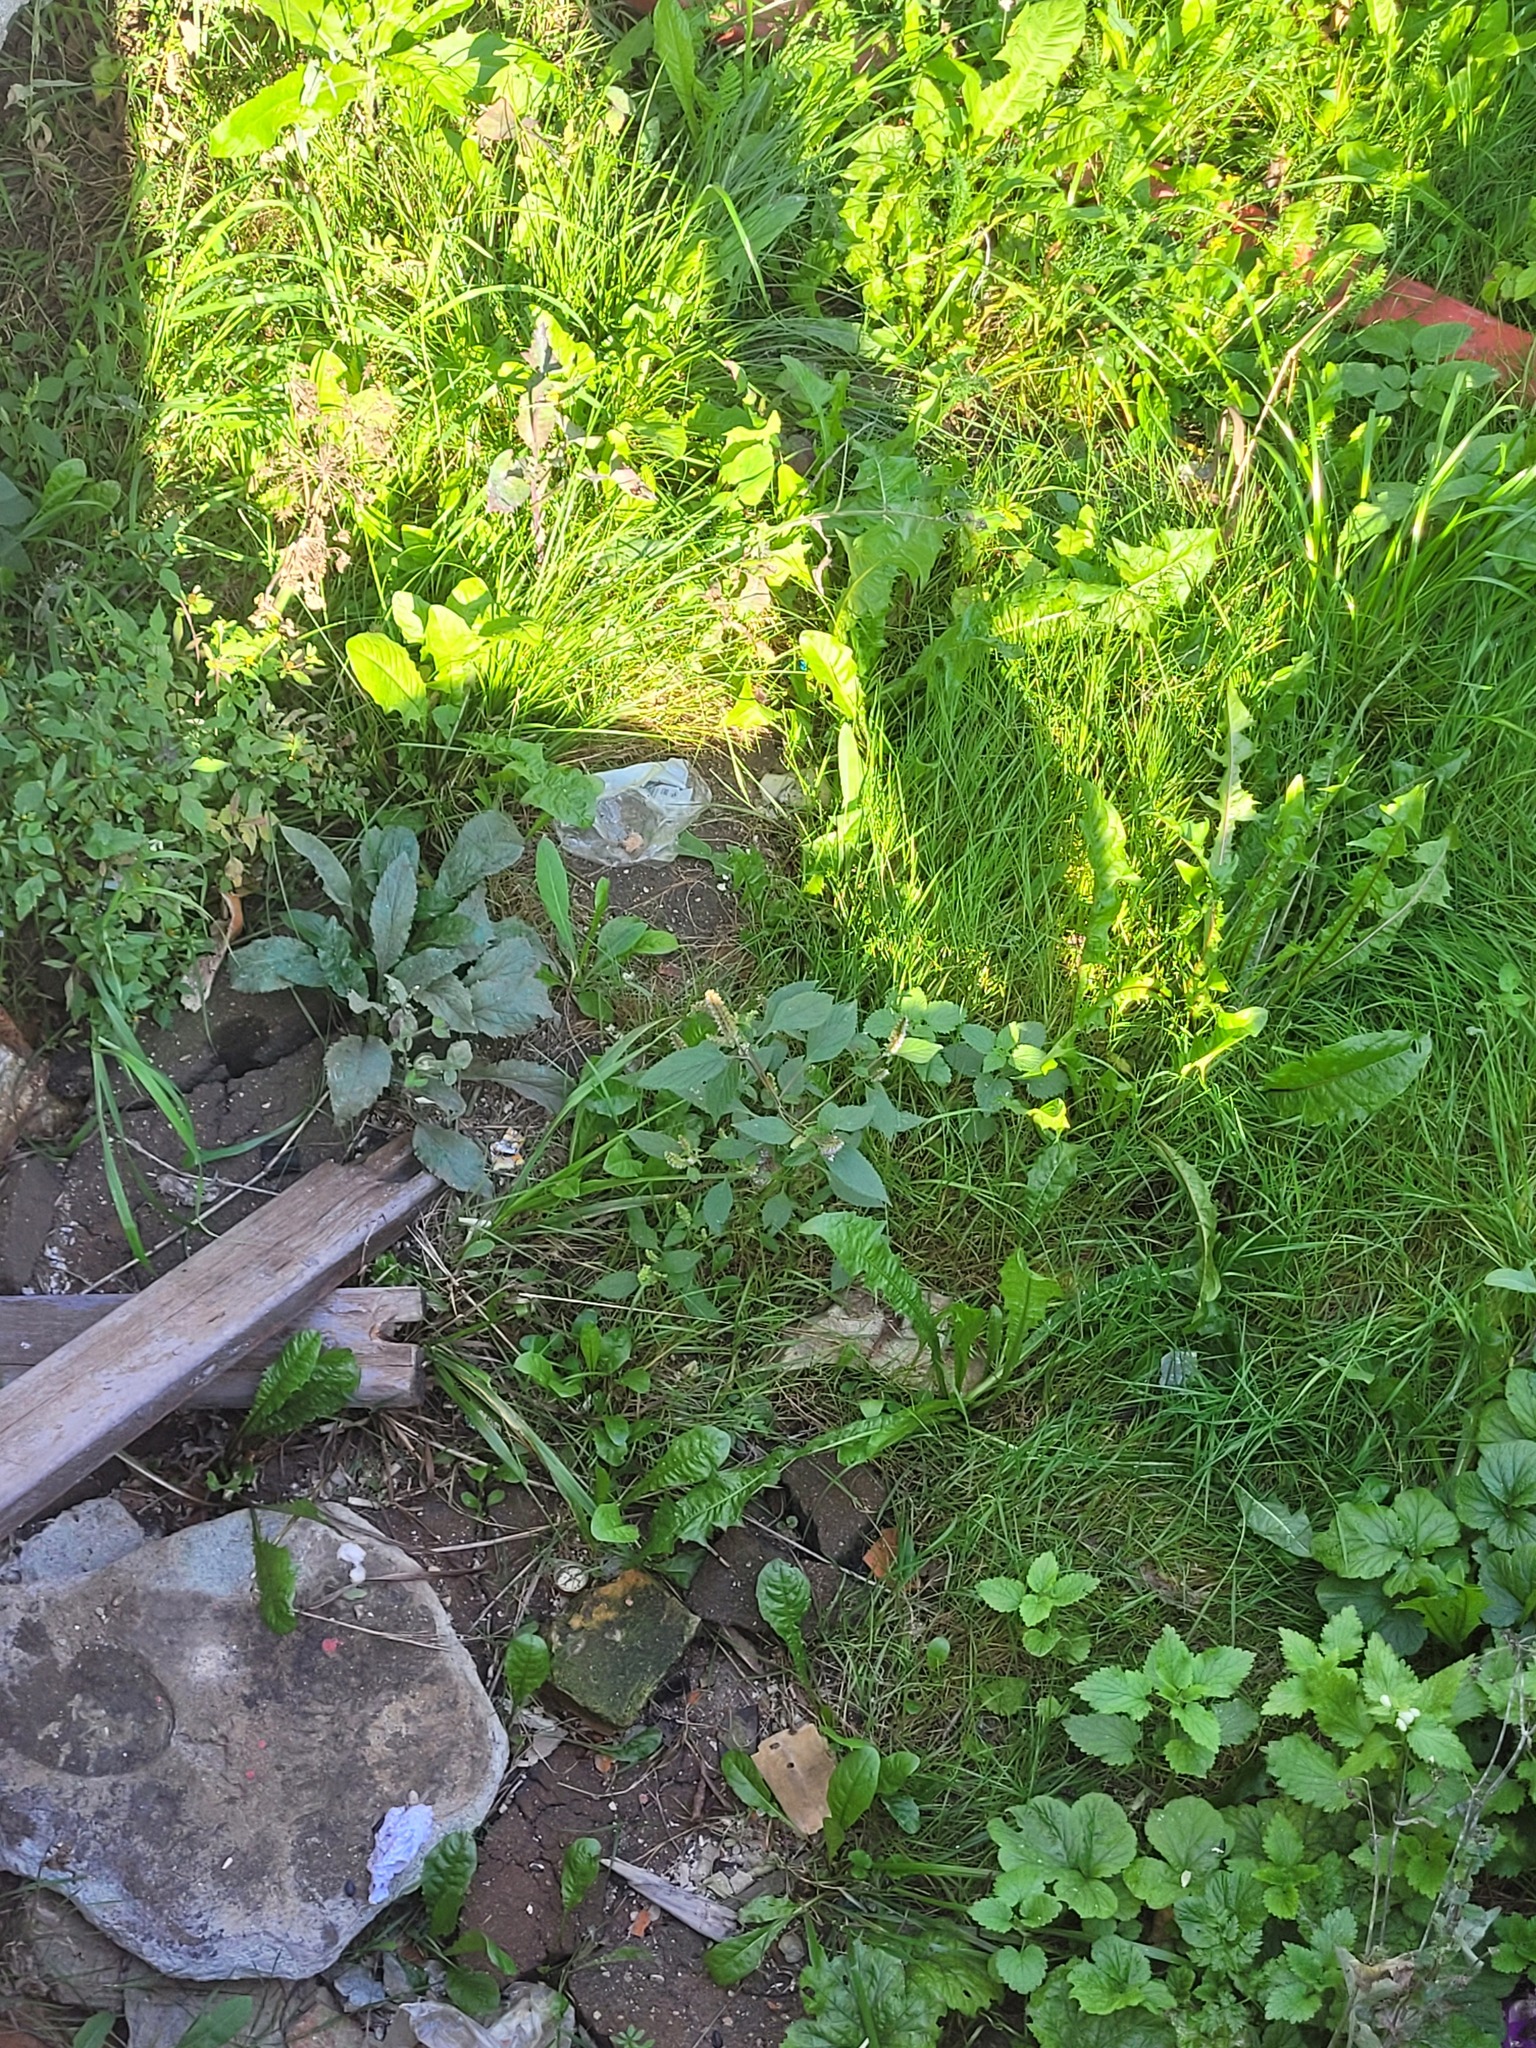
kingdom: Plantae
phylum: Tracheophyta
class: Magnoliopsida
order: Lamiales
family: Lamiaceae
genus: Elsholtzia
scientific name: Elsholtzia ciliata
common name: Ciliate elsholtzia
